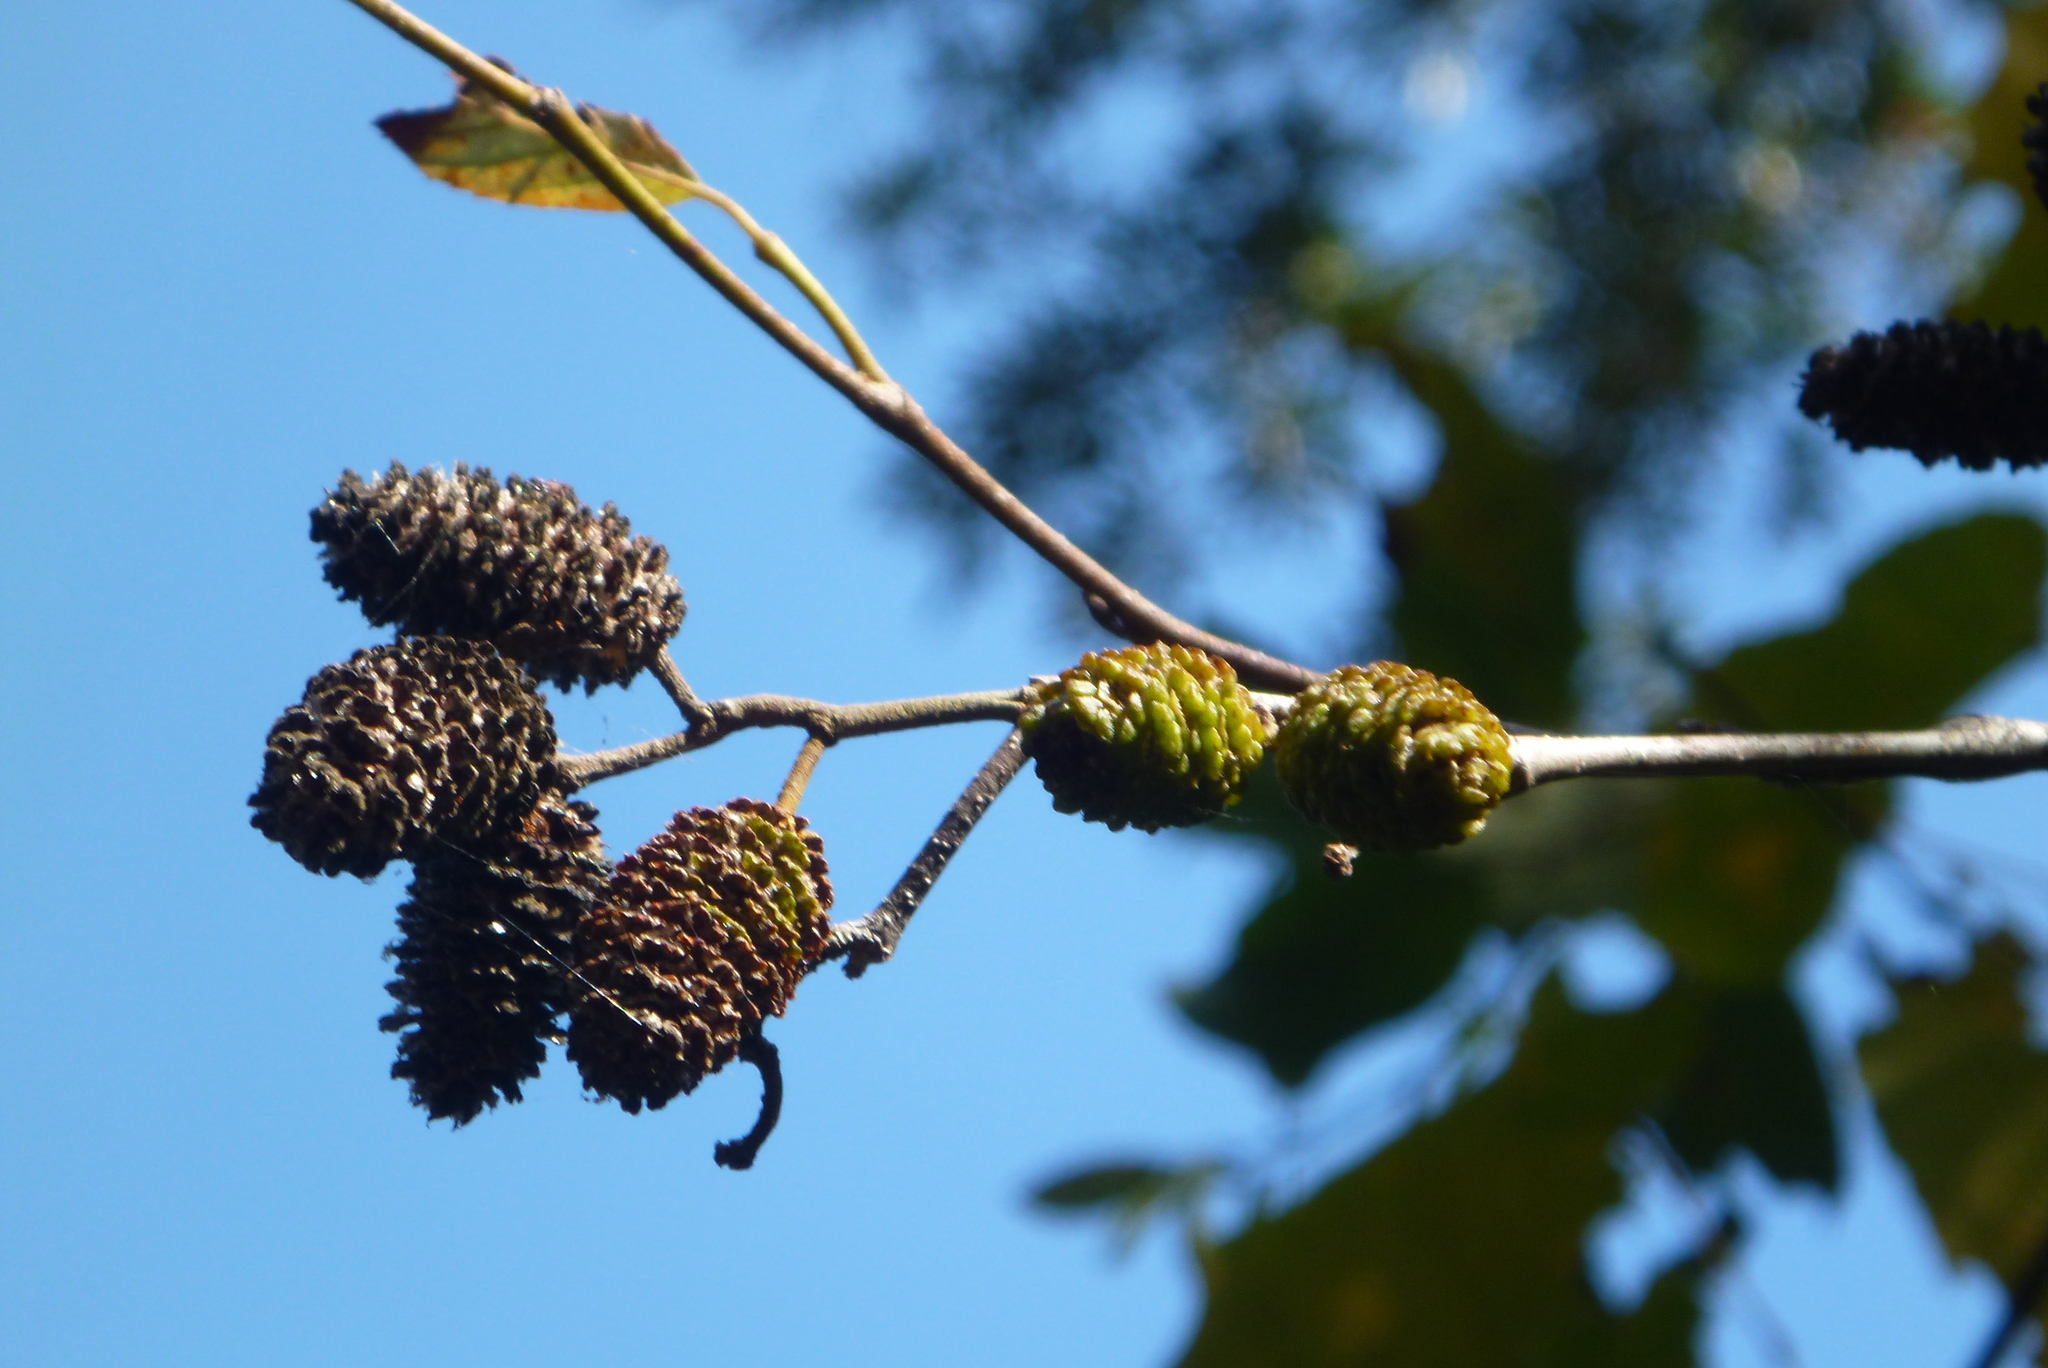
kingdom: Plantae
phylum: Tracheophyta
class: Magnoliopsida
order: Fagales
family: Betulaceae
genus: Alnus
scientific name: Alnus serrulata
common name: Hazel alder
